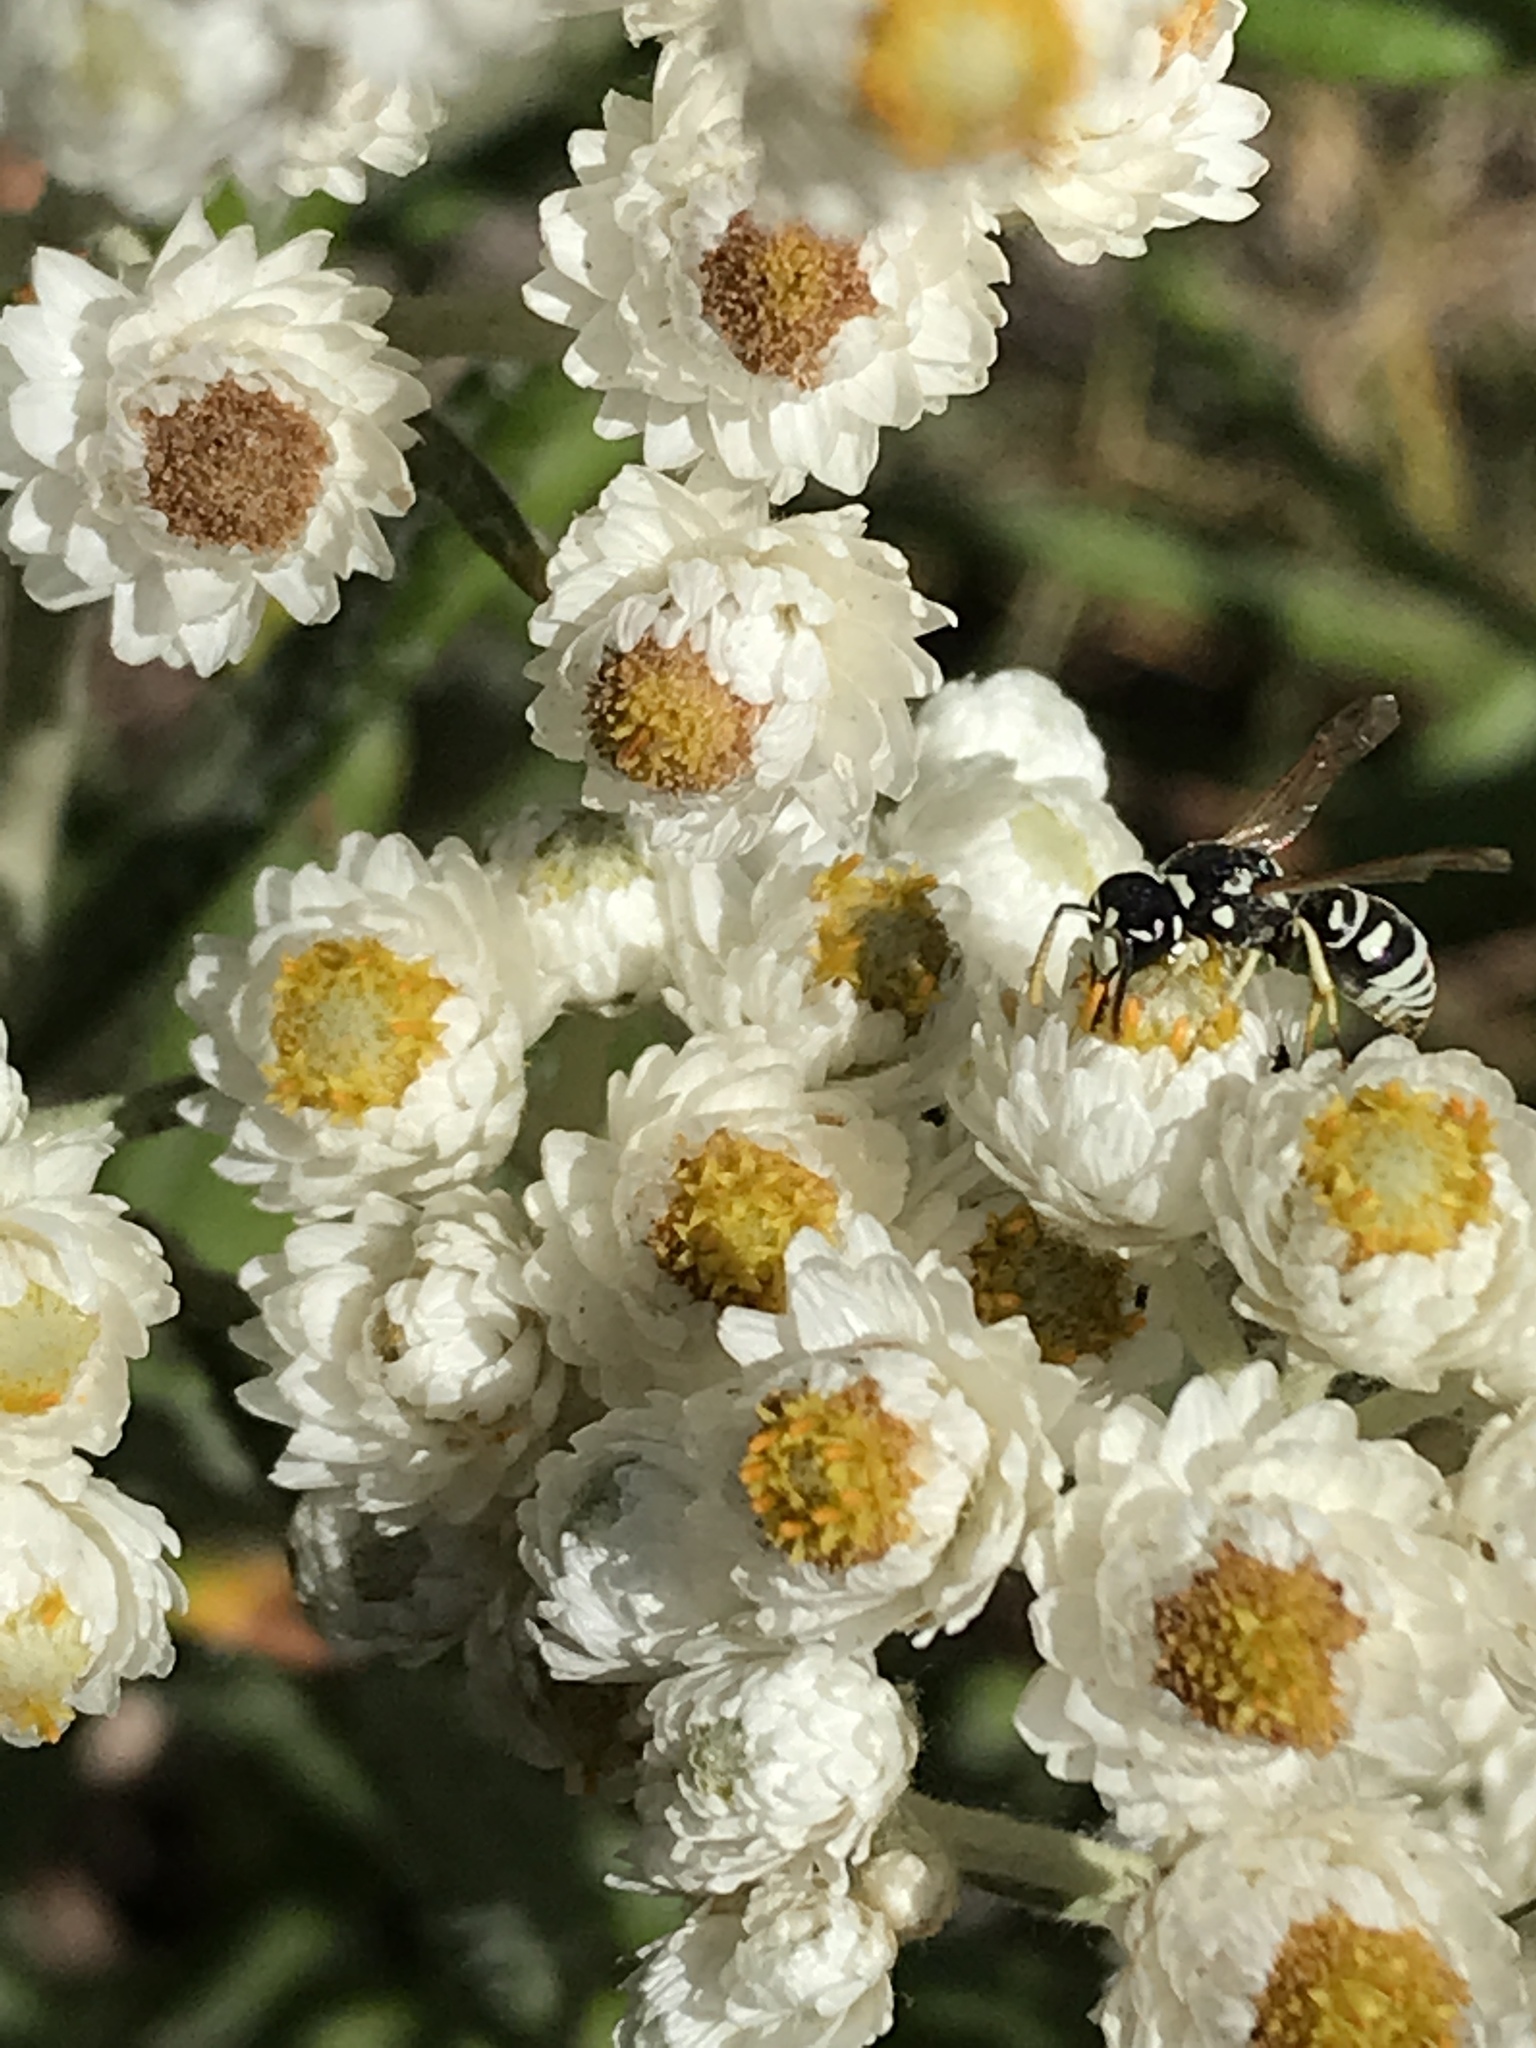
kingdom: Animalia
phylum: Arthropoda
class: Insecta
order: Hymenoptera
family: Eumenidae
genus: Rhynchalastor
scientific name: Rhynchalastor blandoides
